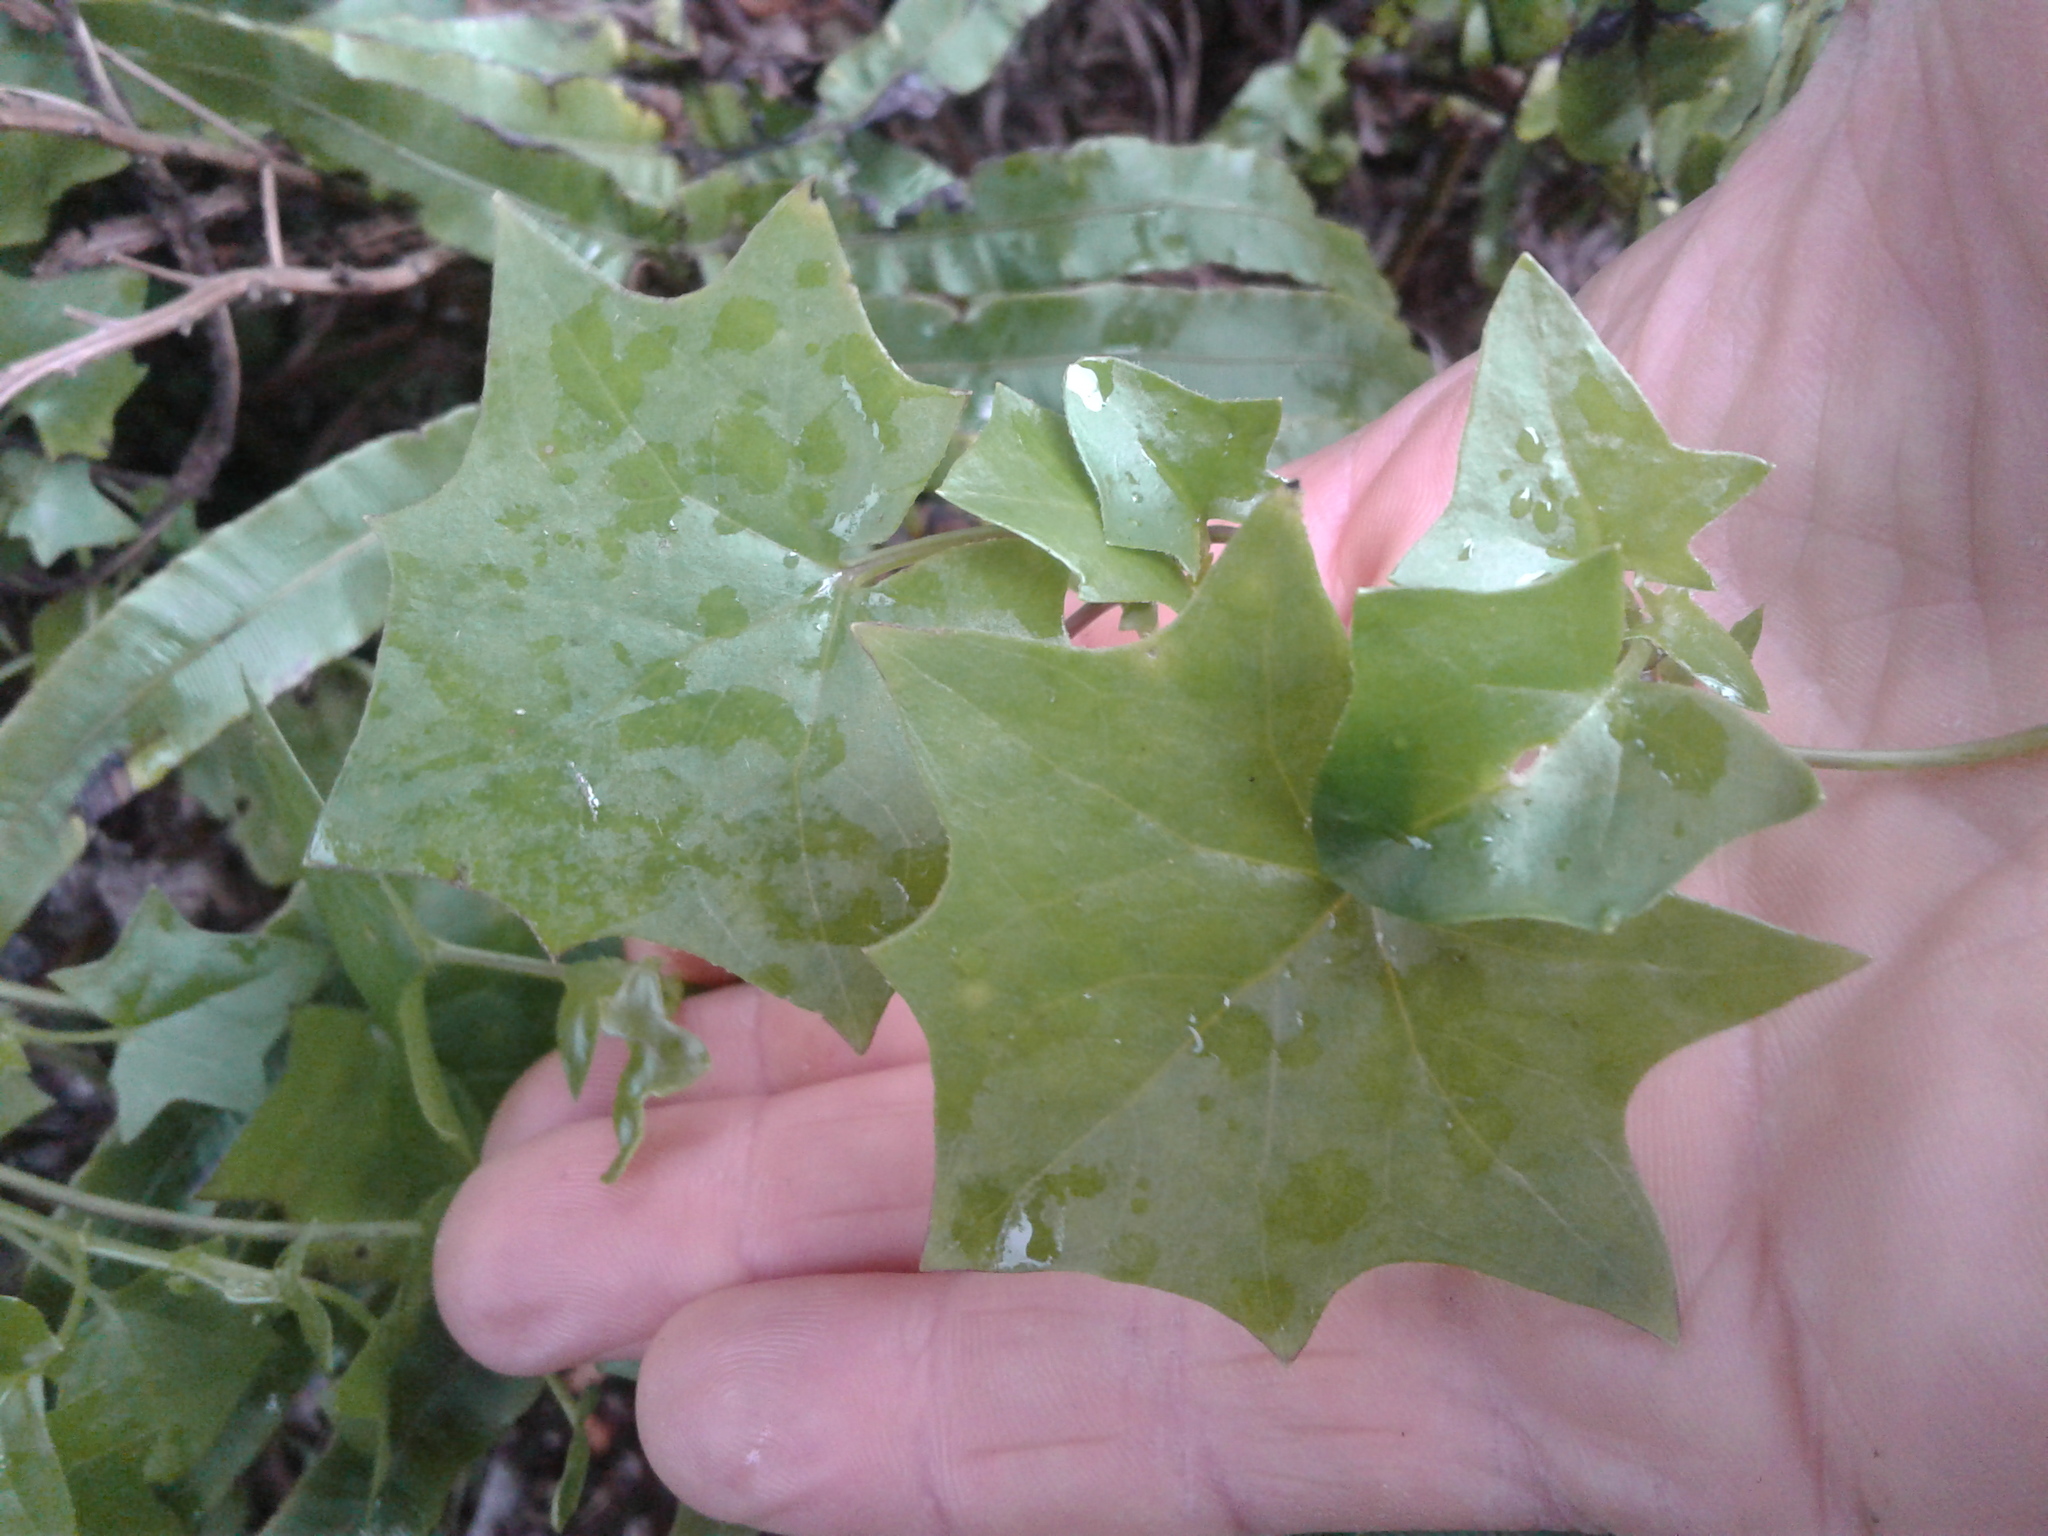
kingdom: Plantae
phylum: Tracheophyta
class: Magnoliopsida
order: Asterales
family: Asteraceae
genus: Delairea
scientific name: Delairea odorata
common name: Cape-ivy
